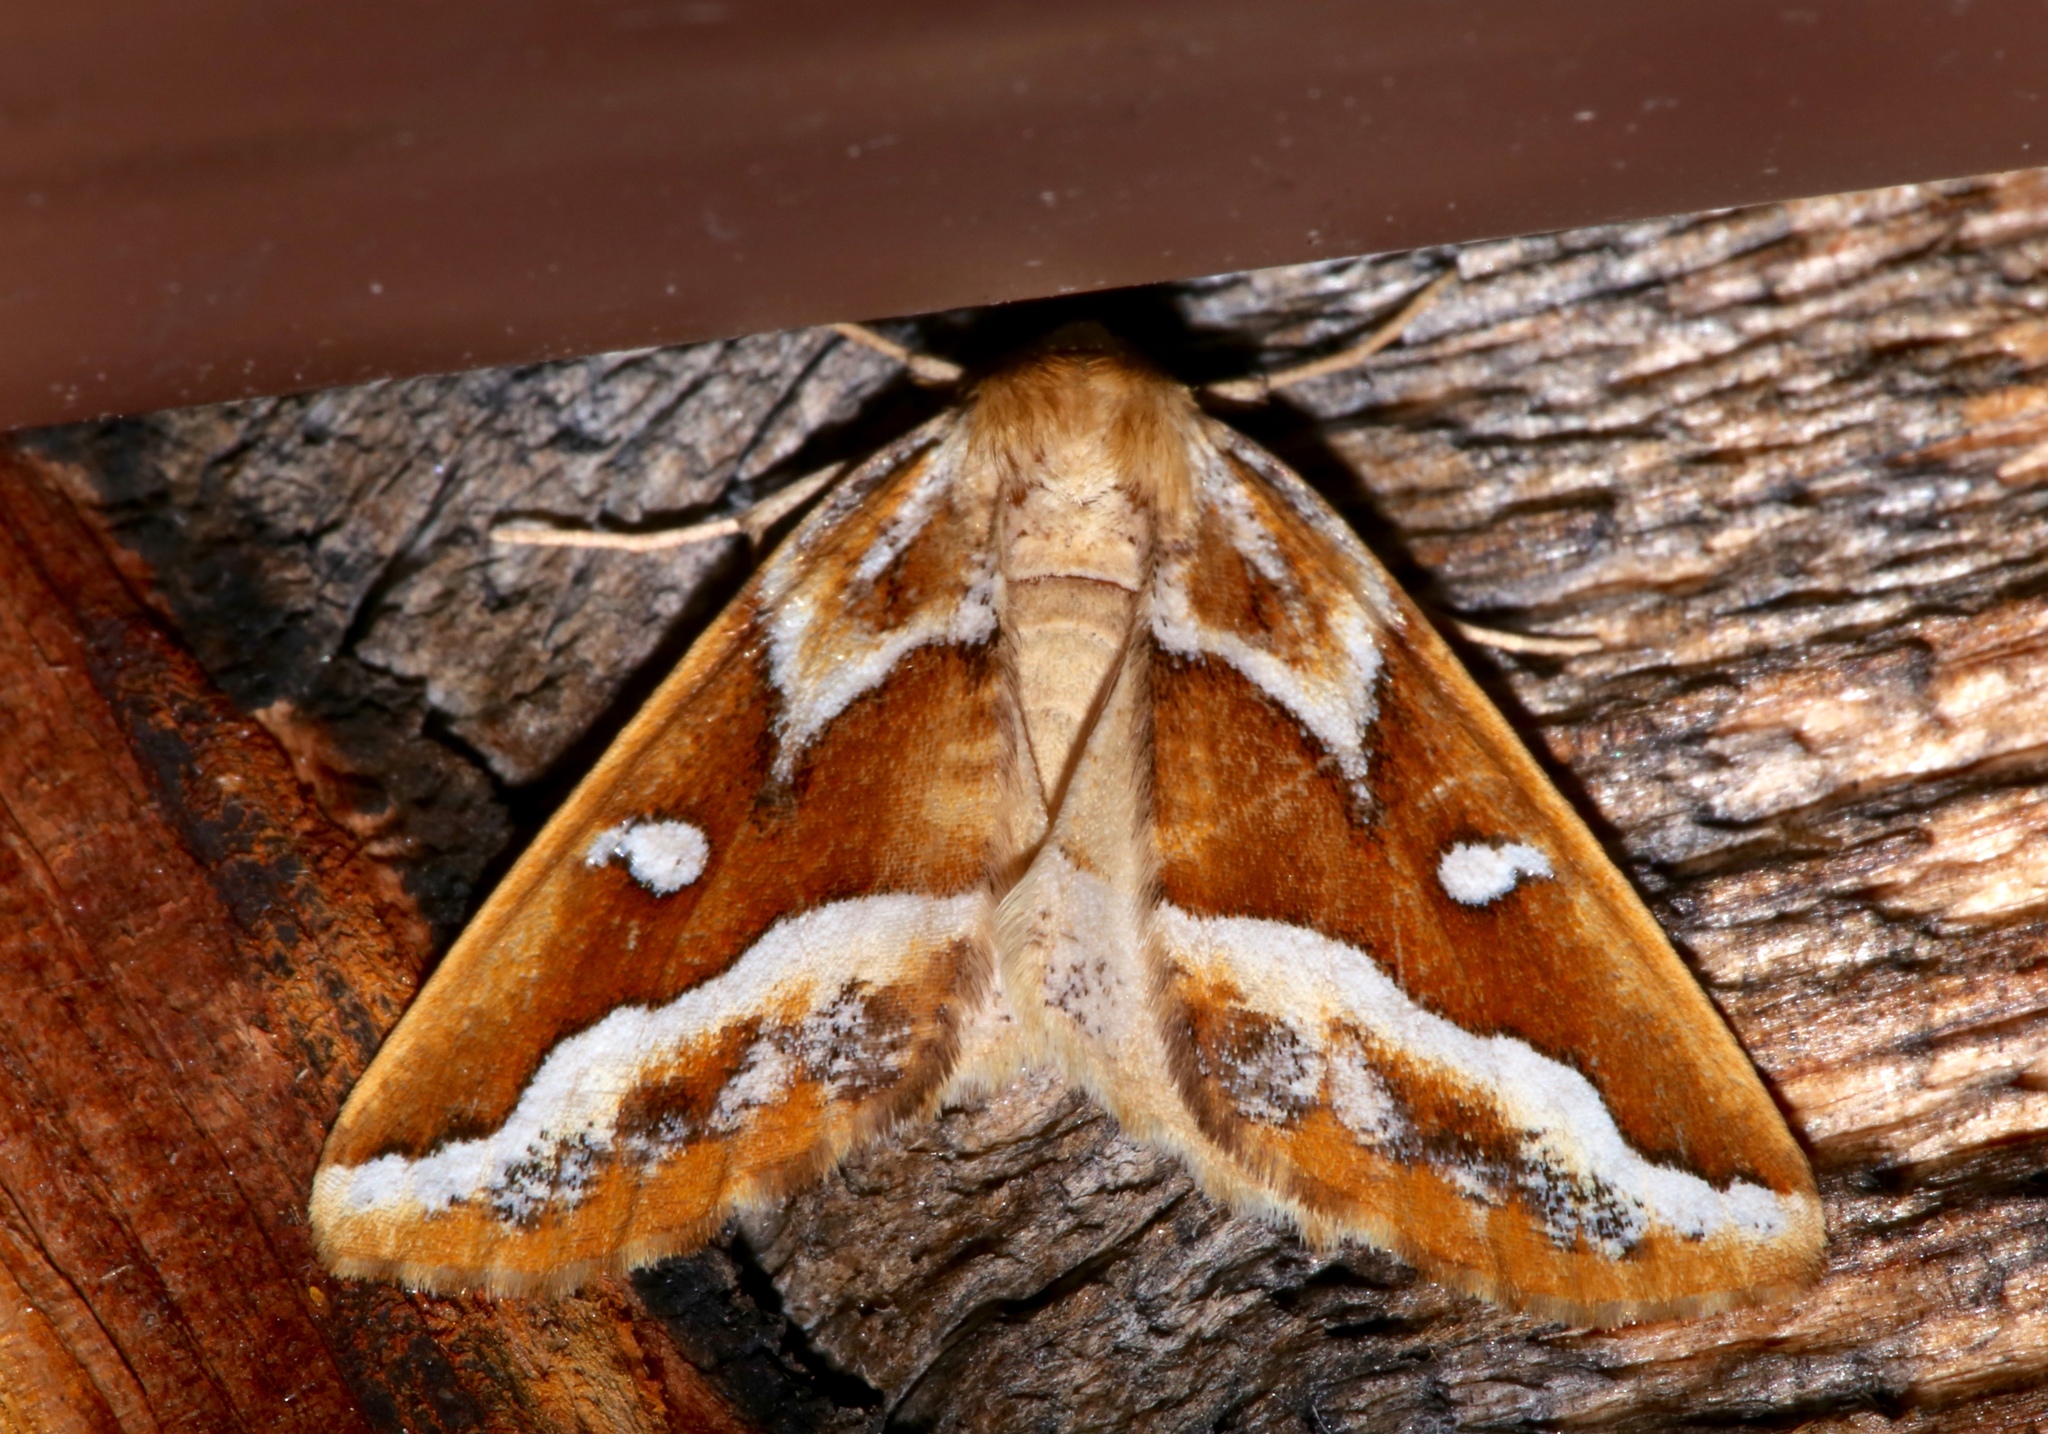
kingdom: Animalia
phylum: Arthropoda
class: Insecta
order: Lepidoptera
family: Geometridae
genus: Caripeta
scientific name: Caripeta angustiorata
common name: Brown pine looper
